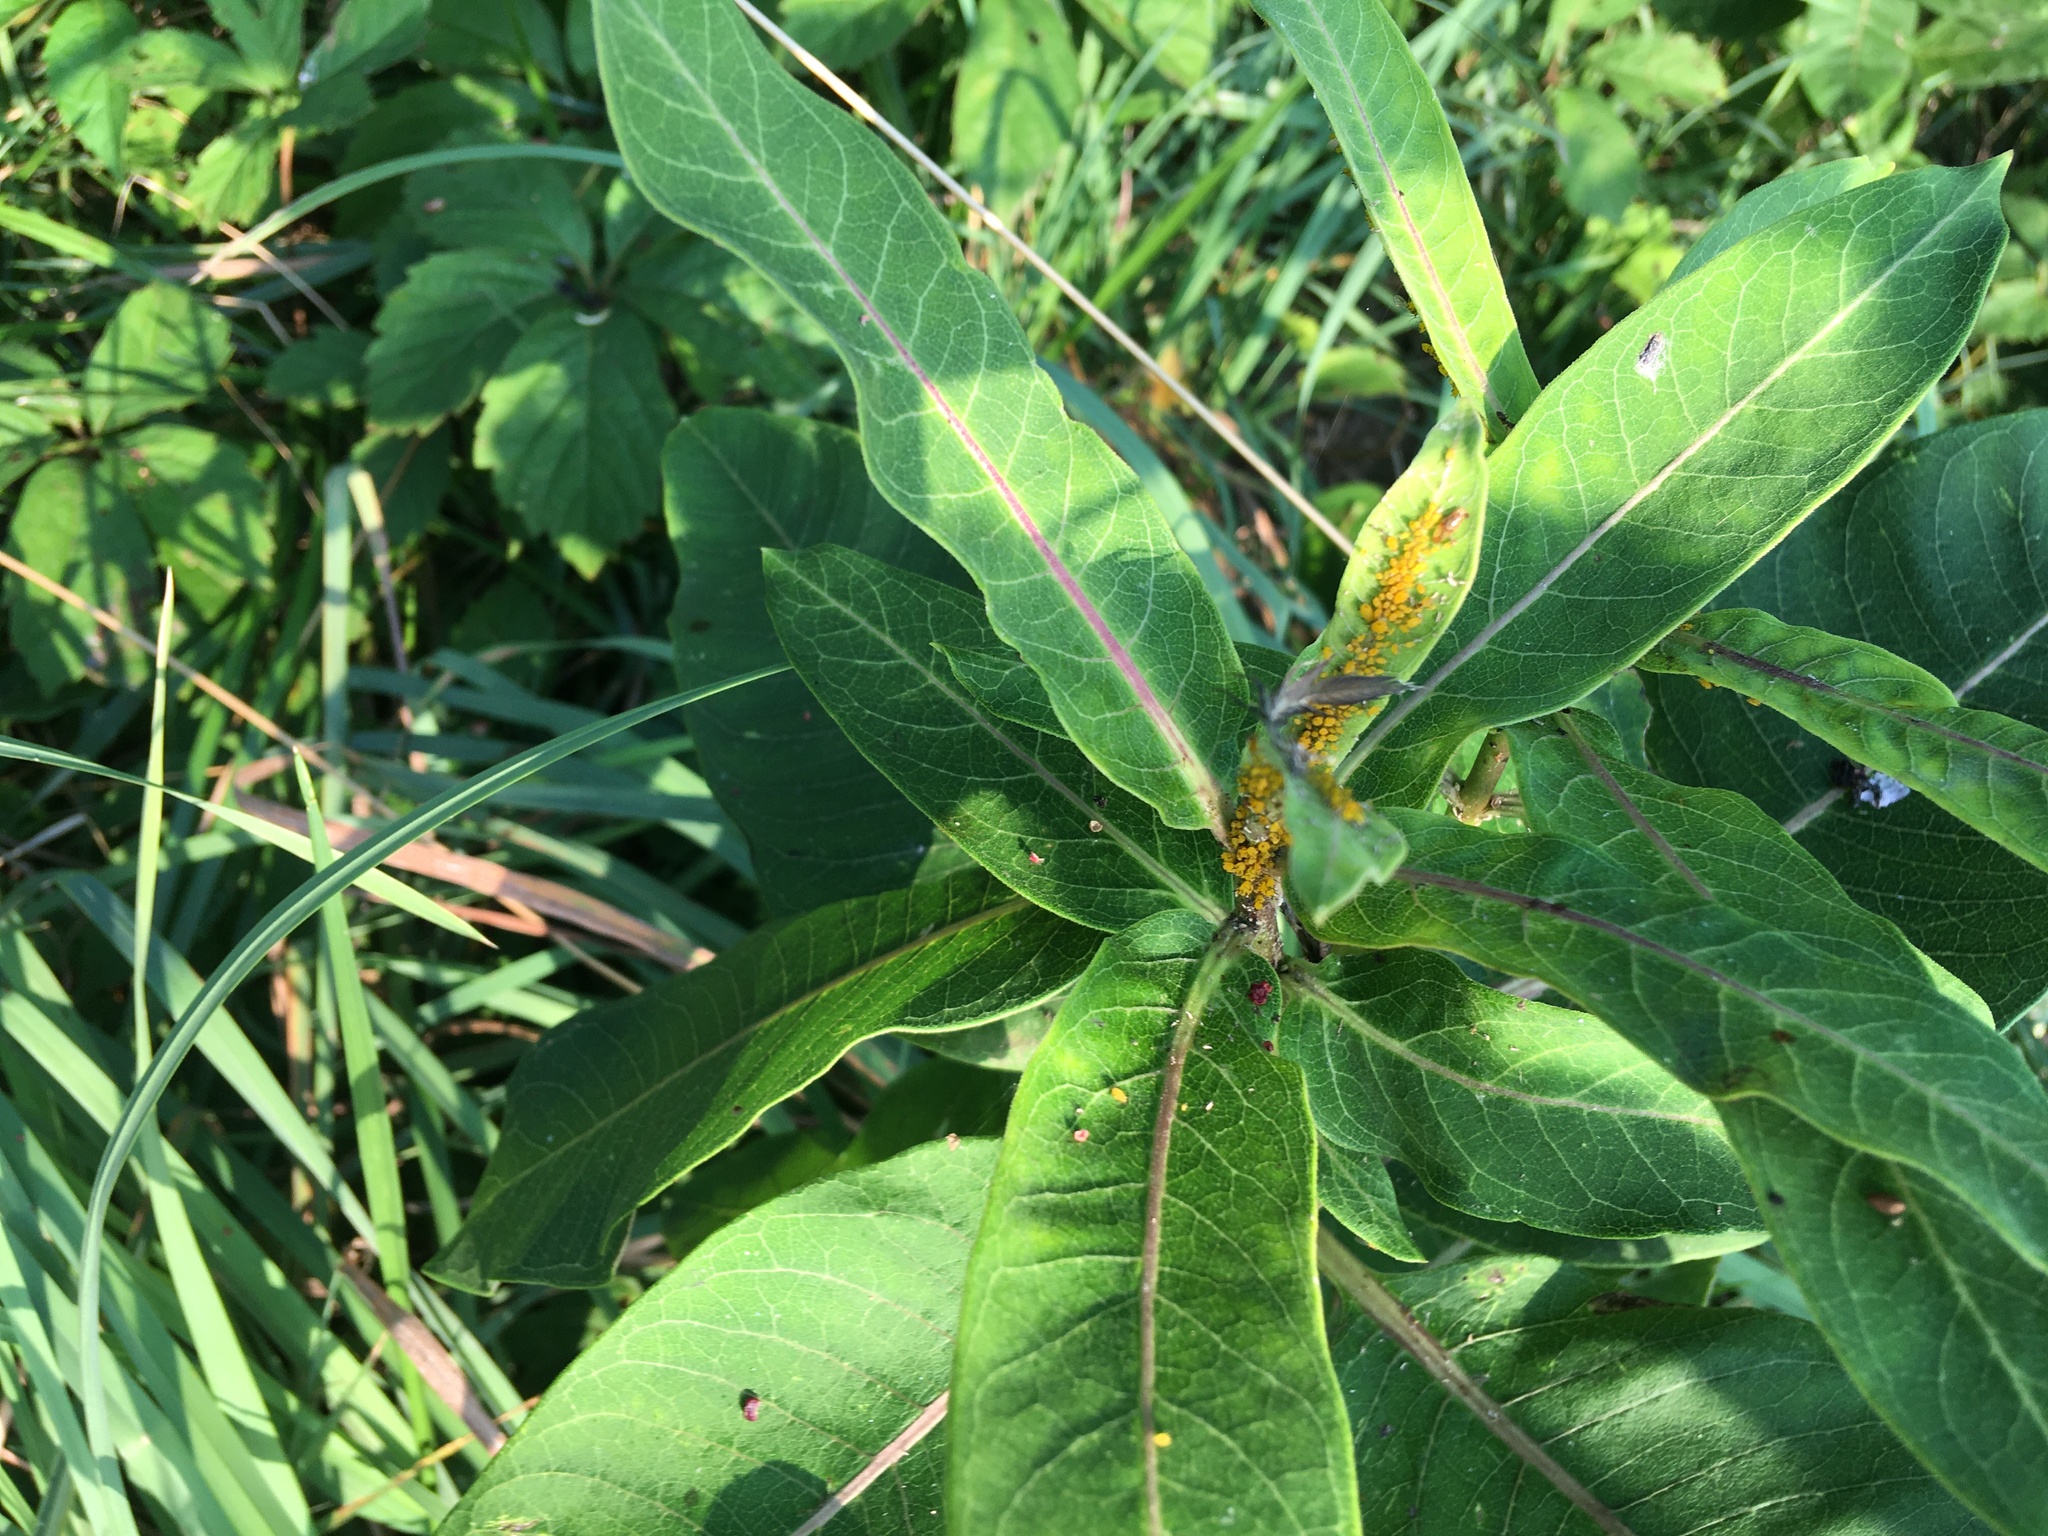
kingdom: Plantae
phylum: Tracheophyta
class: Magnoliopsida
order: Gentianales
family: Apocynaceae
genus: Asclepias
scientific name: Asclepias syriaca
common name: Common milkweed
